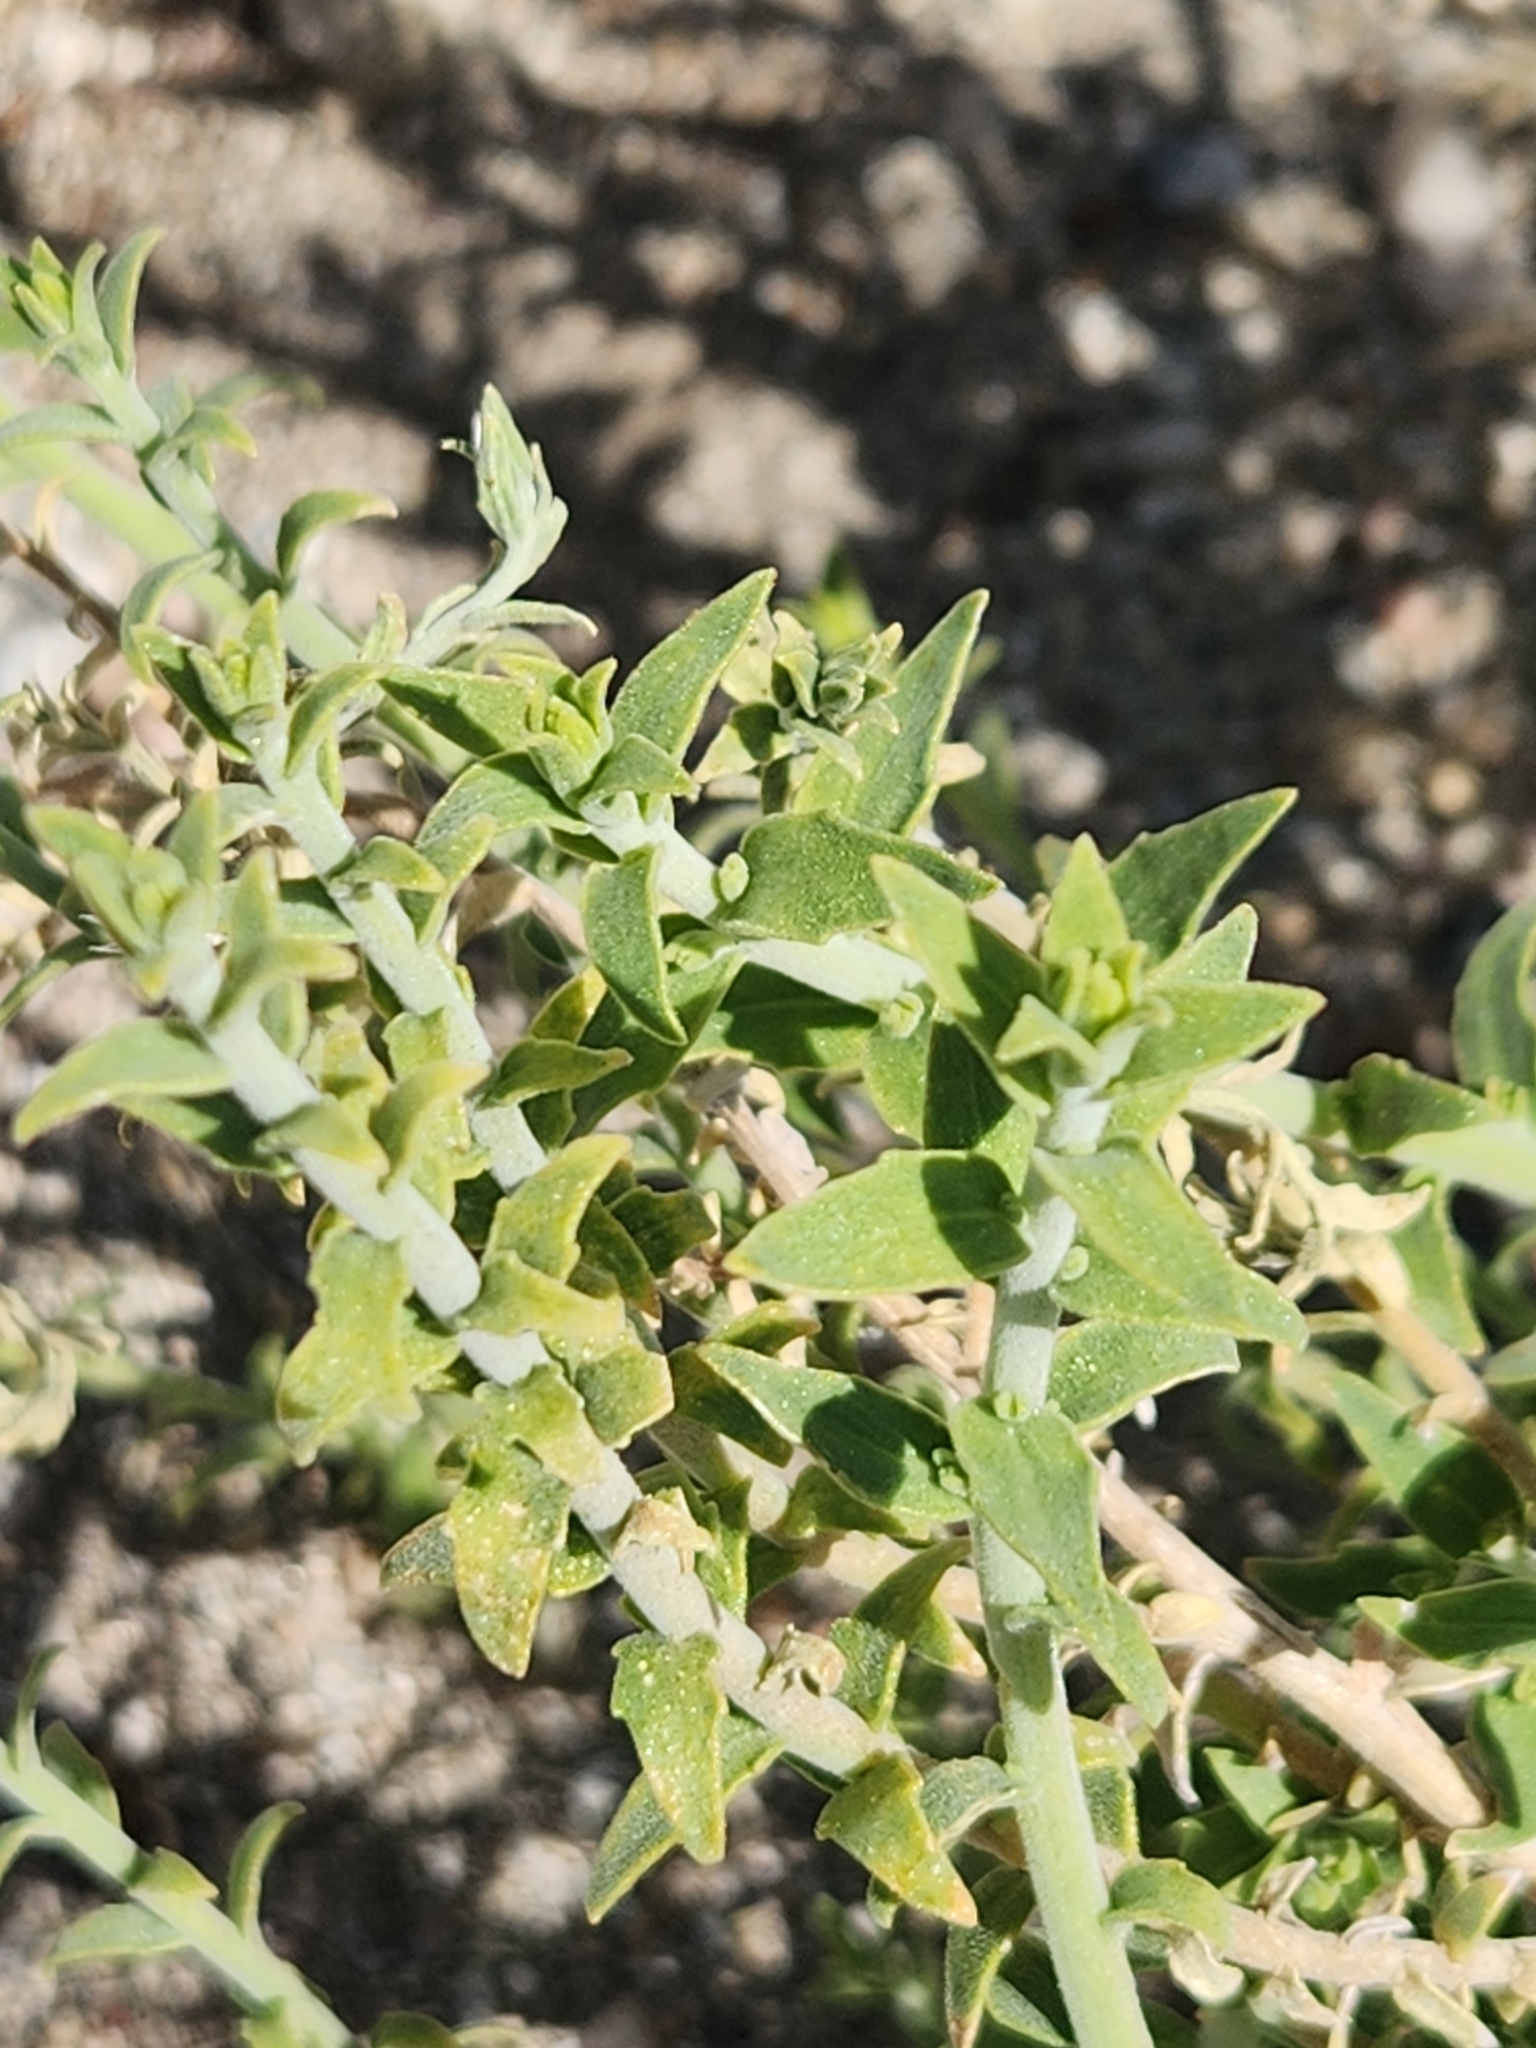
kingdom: Plantae
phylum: Tracheophyta
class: Magnoliopsida
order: Cornales
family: Loasaceae
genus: Petalonyx
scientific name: Petalonyx thurberi
